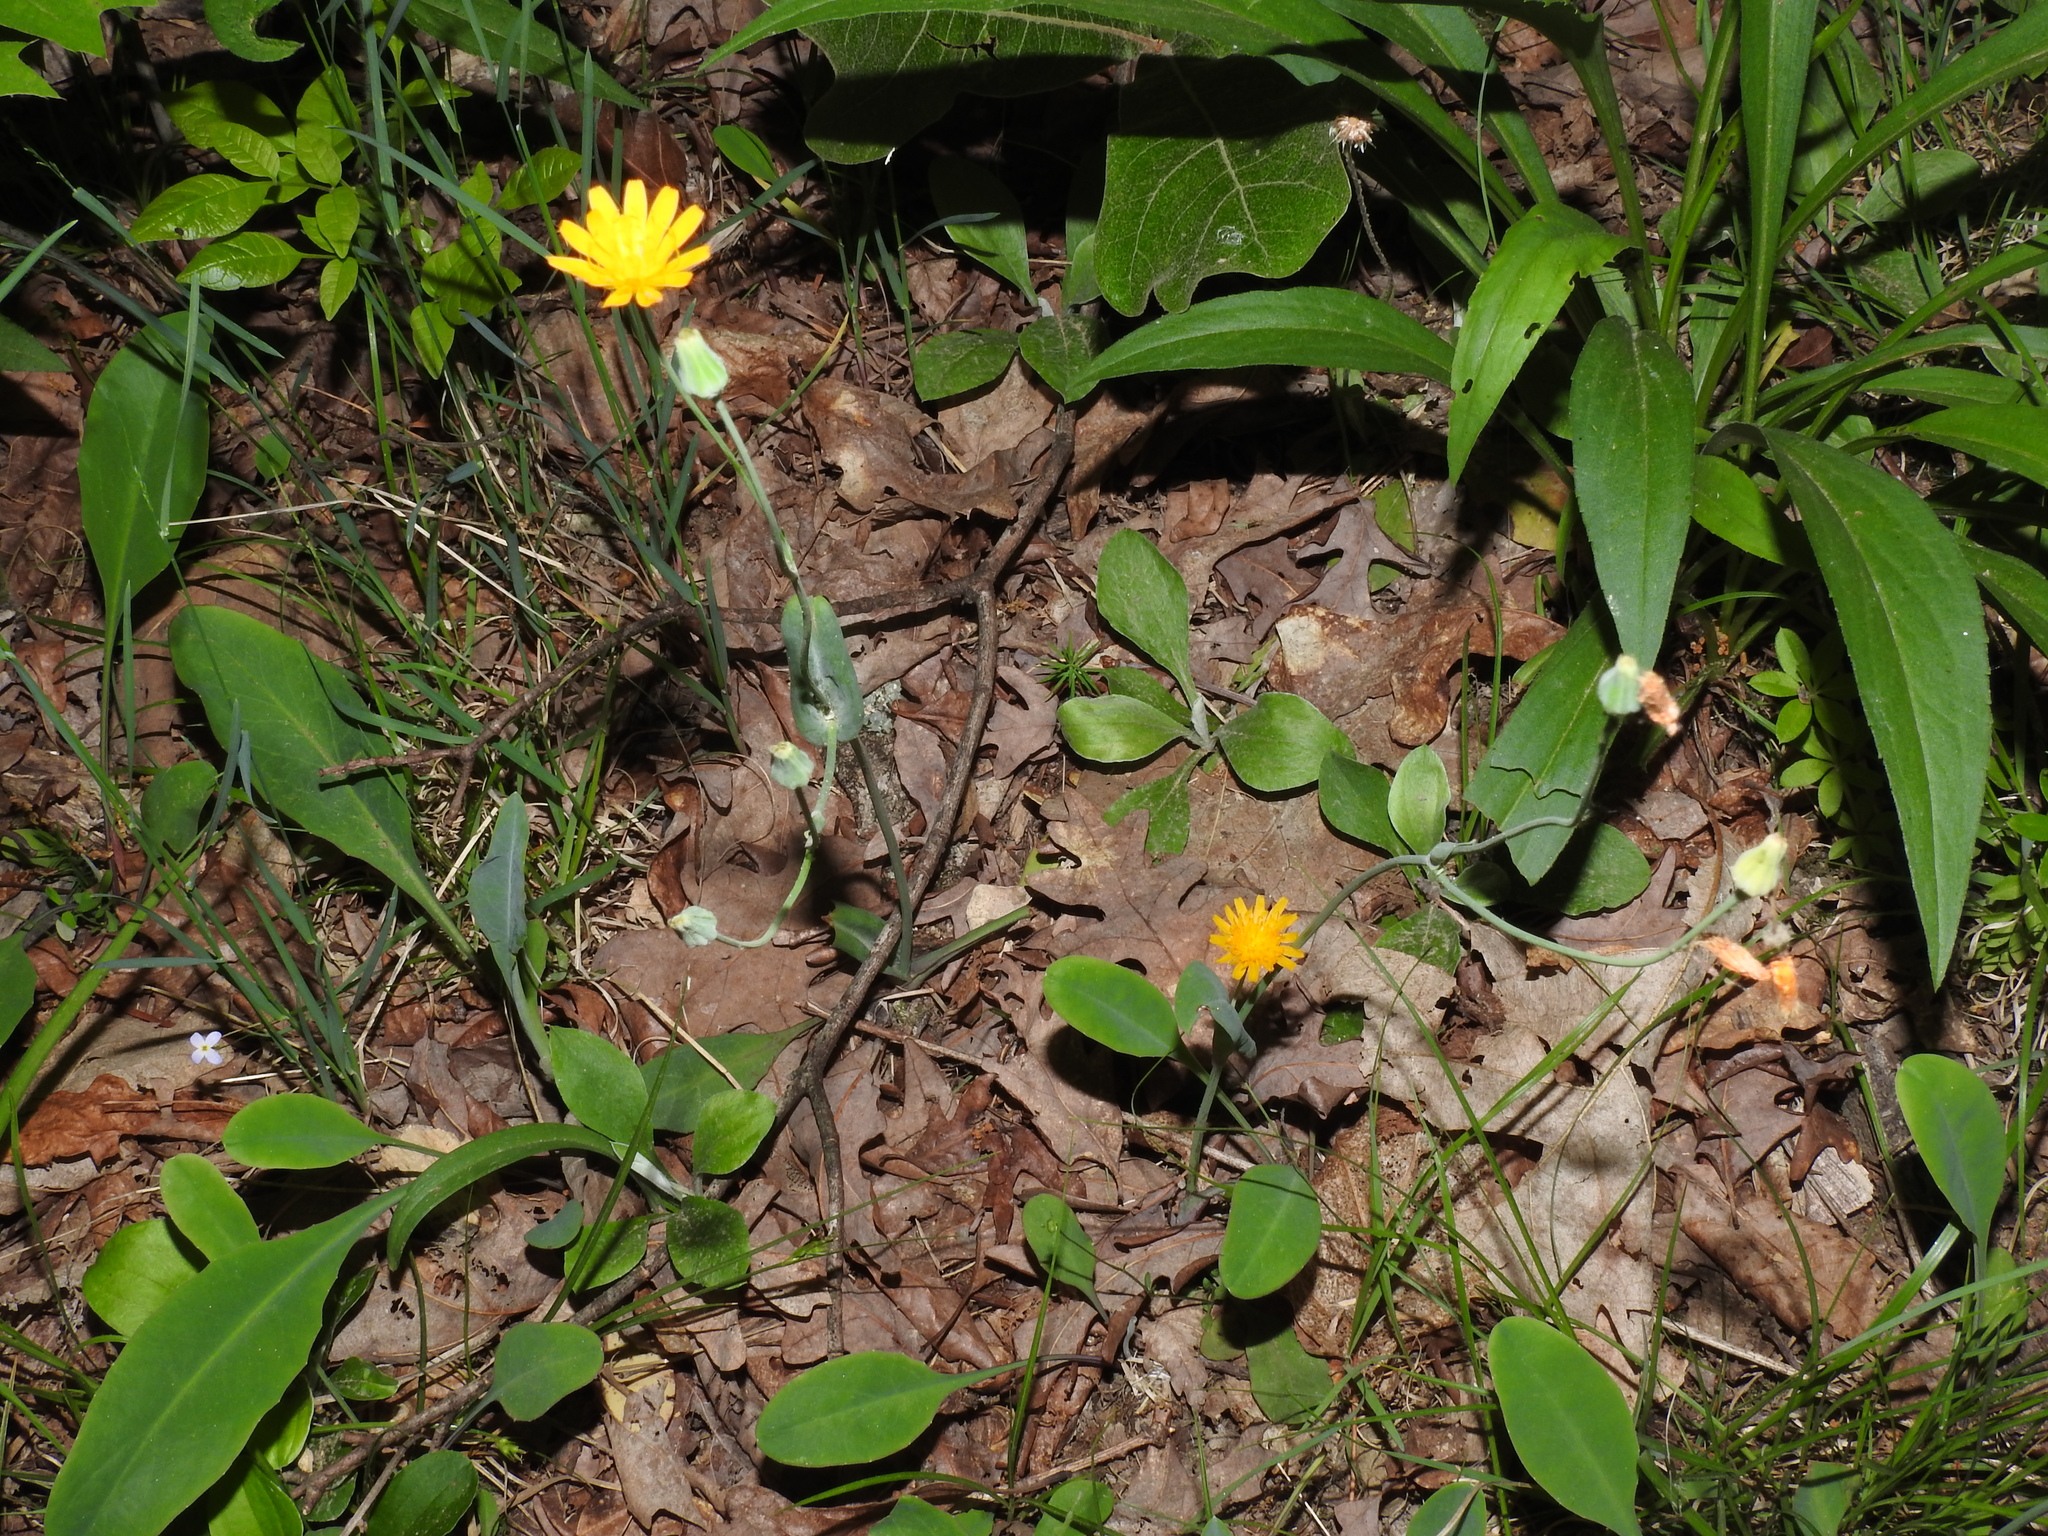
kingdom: Plantae
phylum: Tracheophyta
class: Magnoliopsida
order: Asterales
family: Asteraceae
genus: Krigia
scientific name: Krigia biflora
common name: Orange dwarf-dandelion
